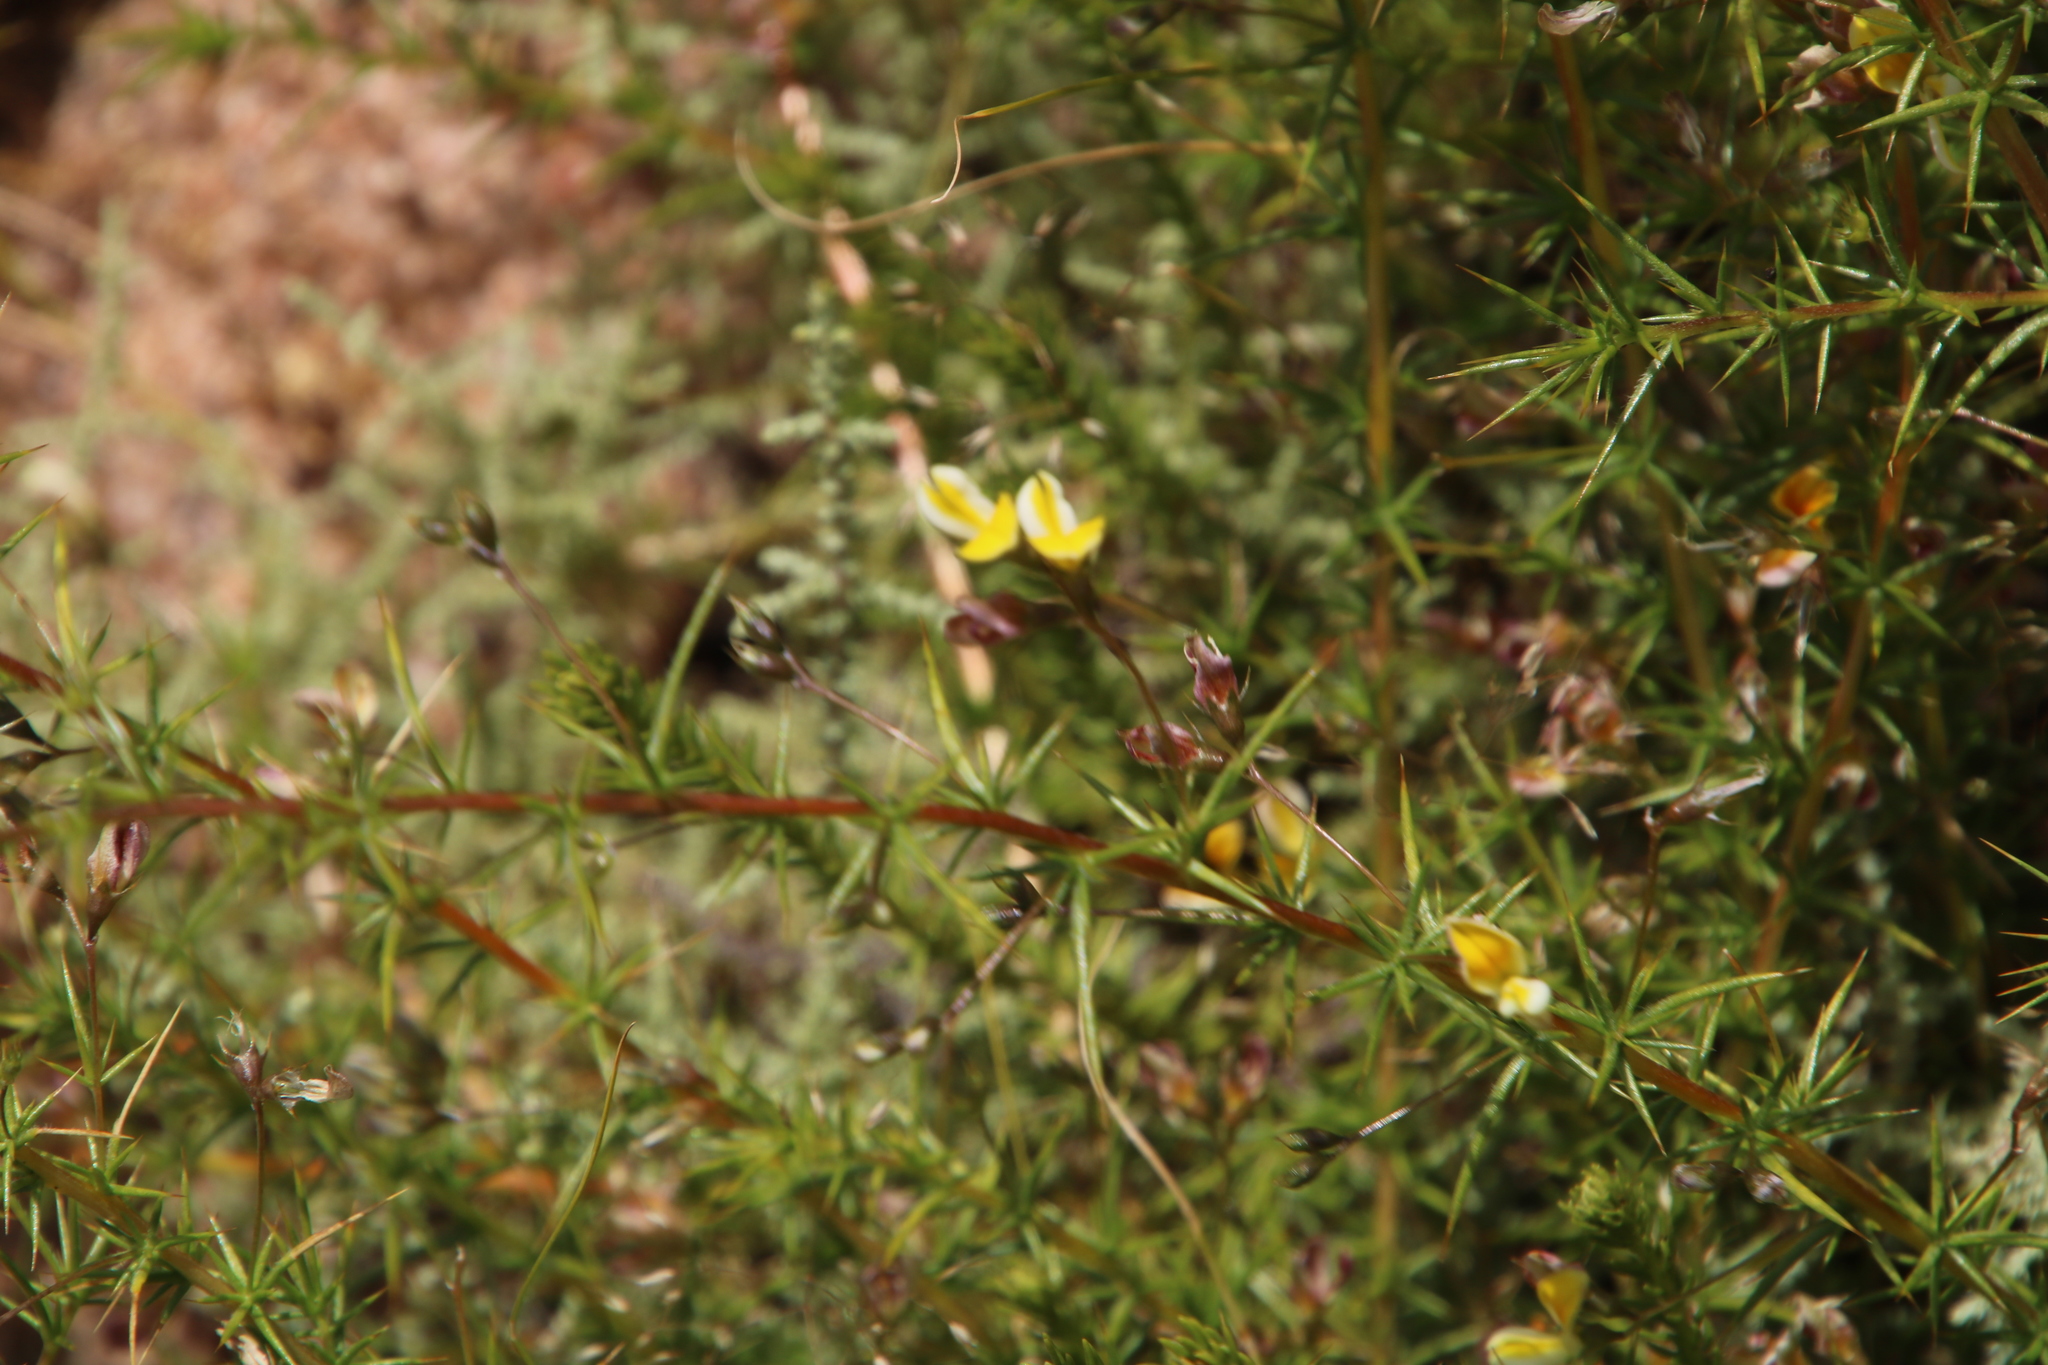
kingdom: Plantae
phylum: Tracheophyta
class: Magnoliopsida
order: Fabales
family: Fabaceae
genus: Aspalathus
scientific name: Aspalathus spinosissima
